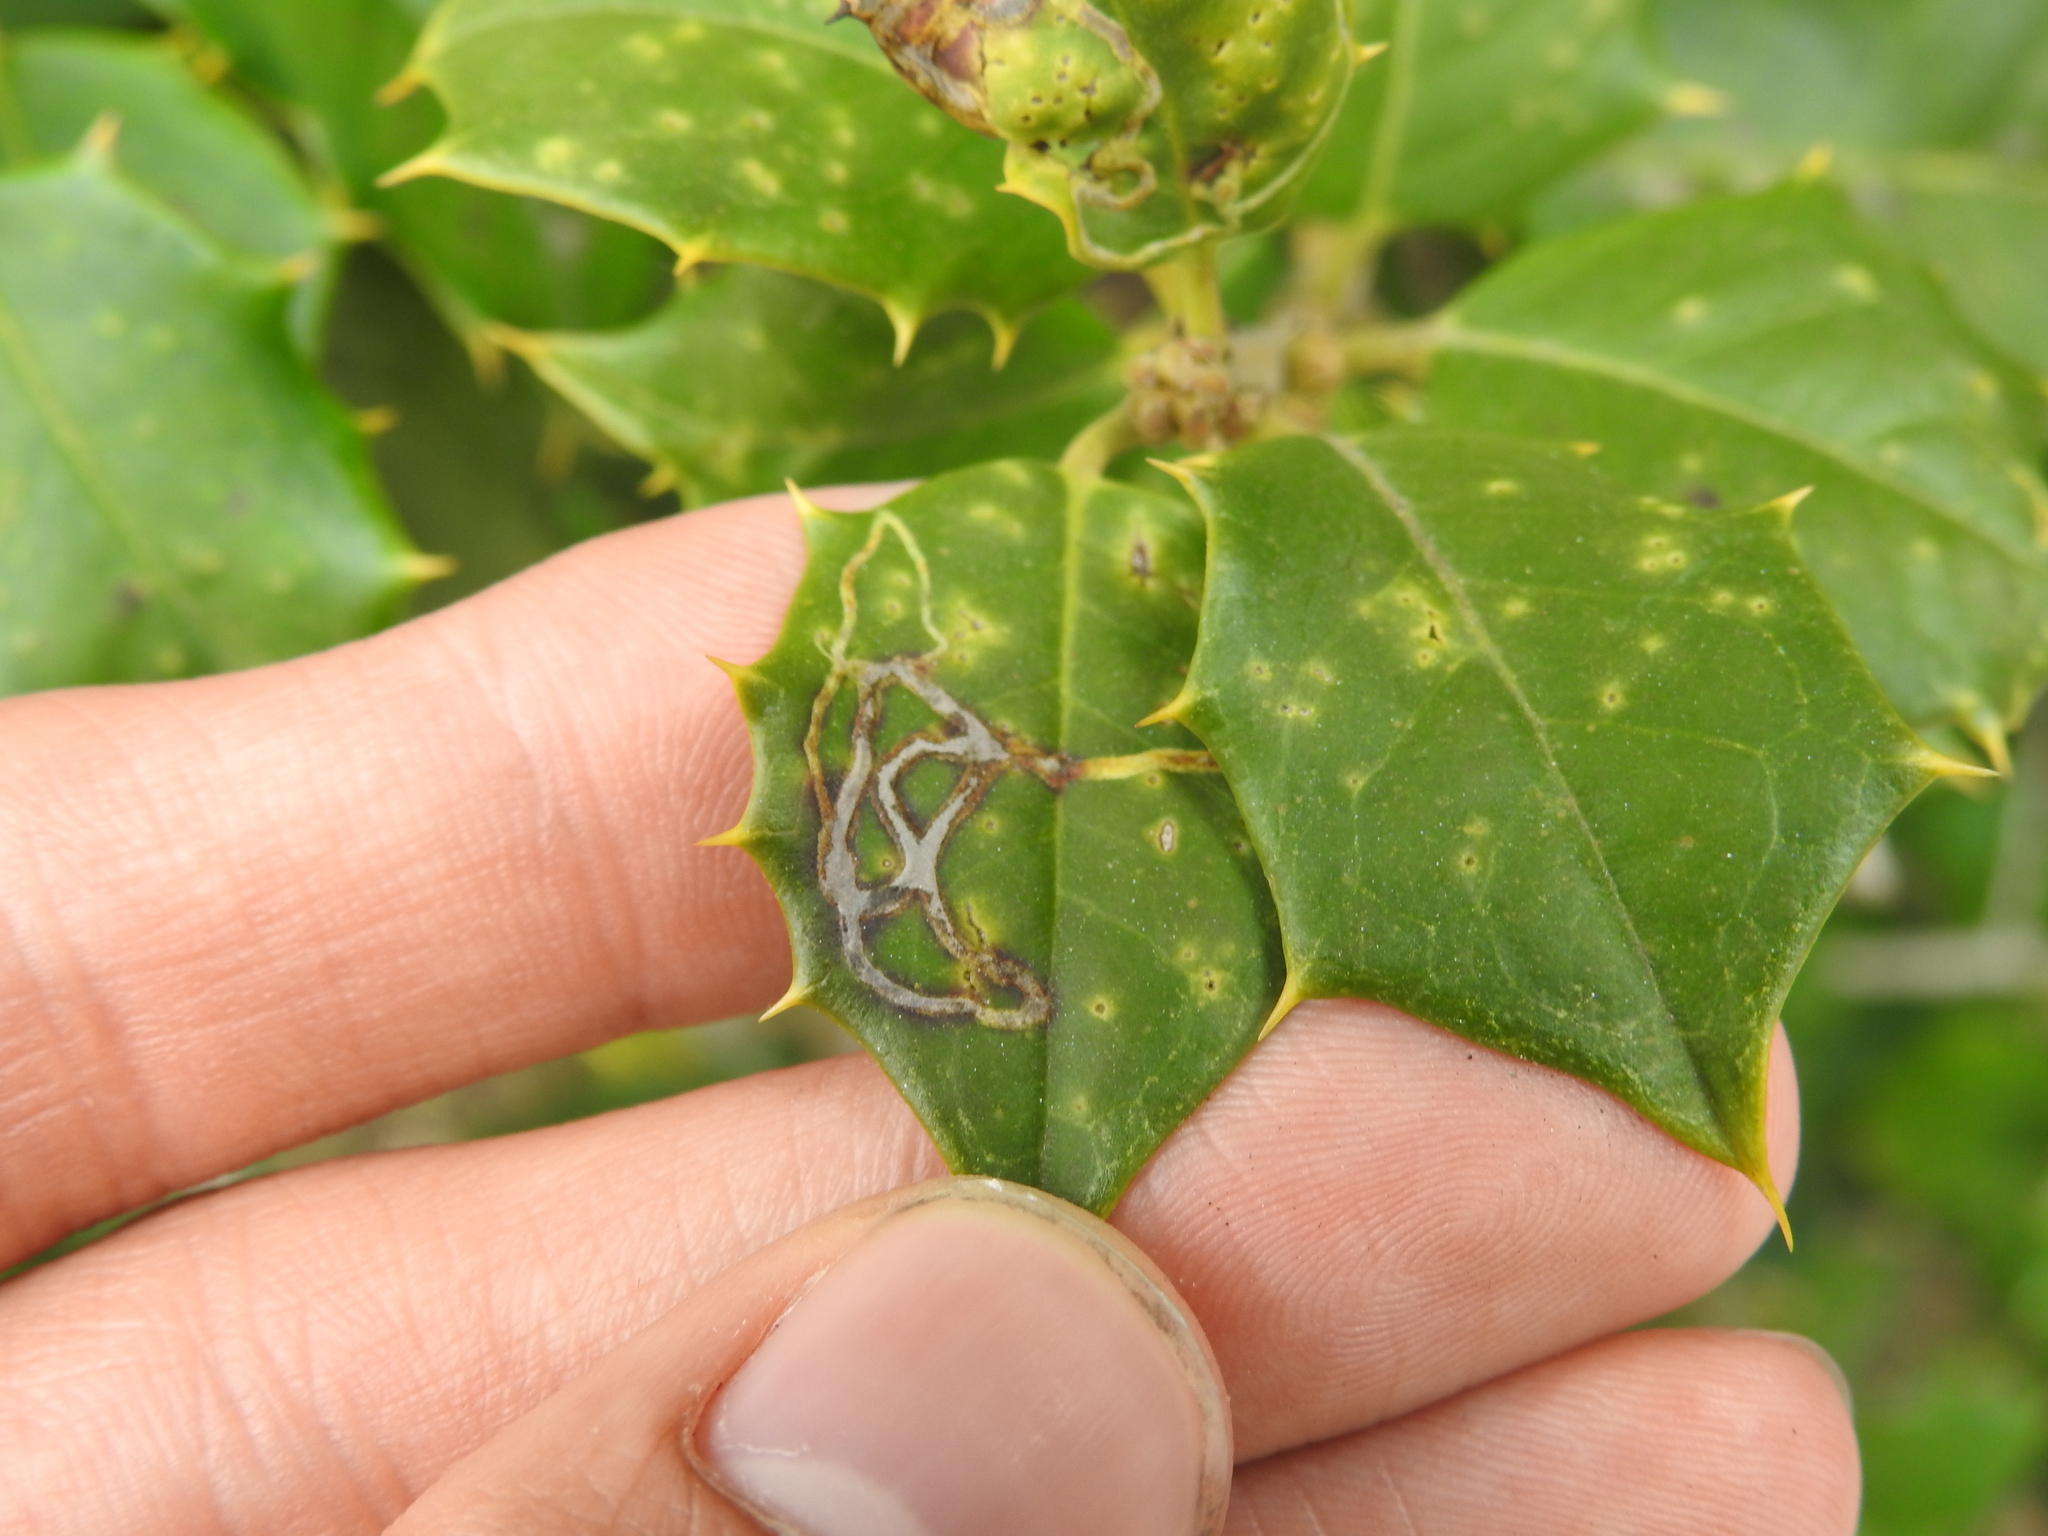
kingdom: Animalia
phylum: Arthropoda
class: Insecta
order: Diptera
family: Agromyzidae
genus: Phytomyza
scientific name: Phytomyza opacae
